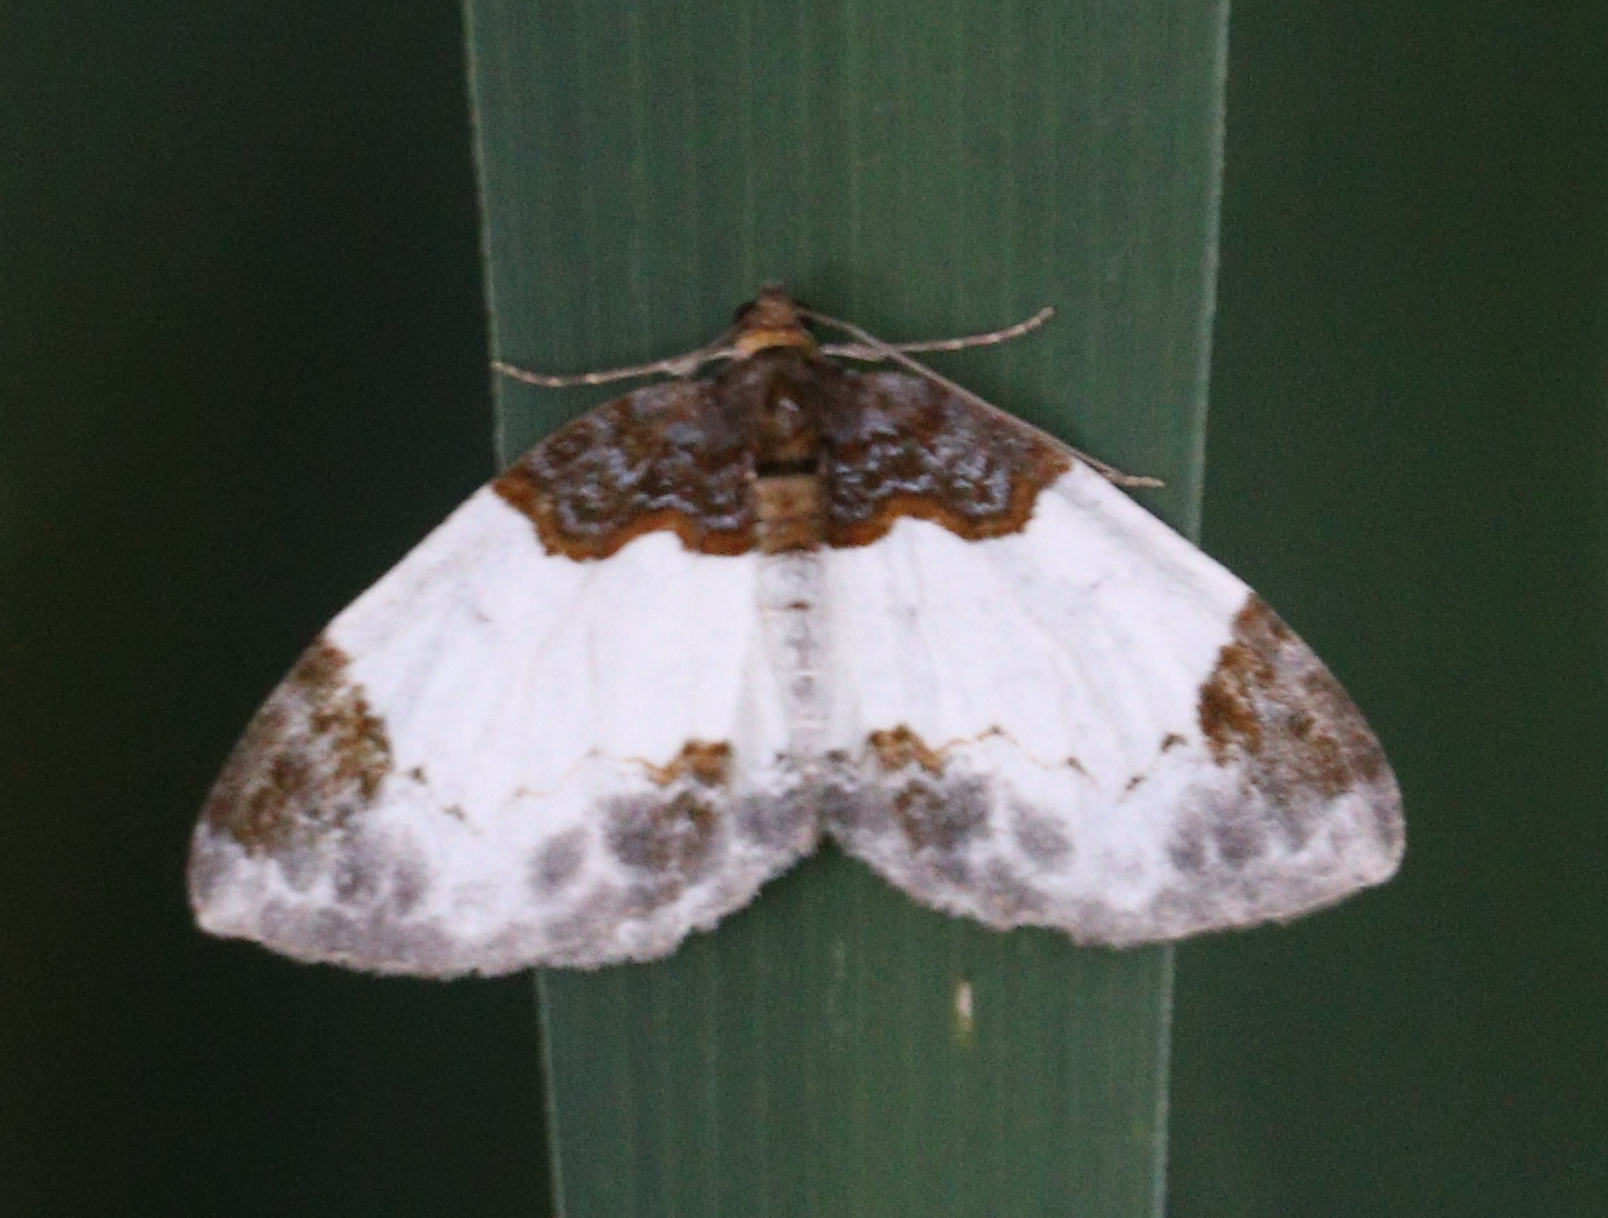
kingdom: Animalia
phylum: Arthropoda
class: Insecta
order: Lepidoptera
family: Geometridae
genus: Mesoleuca
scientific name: Mesoleuca albicillata
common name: Beautiful carpet
